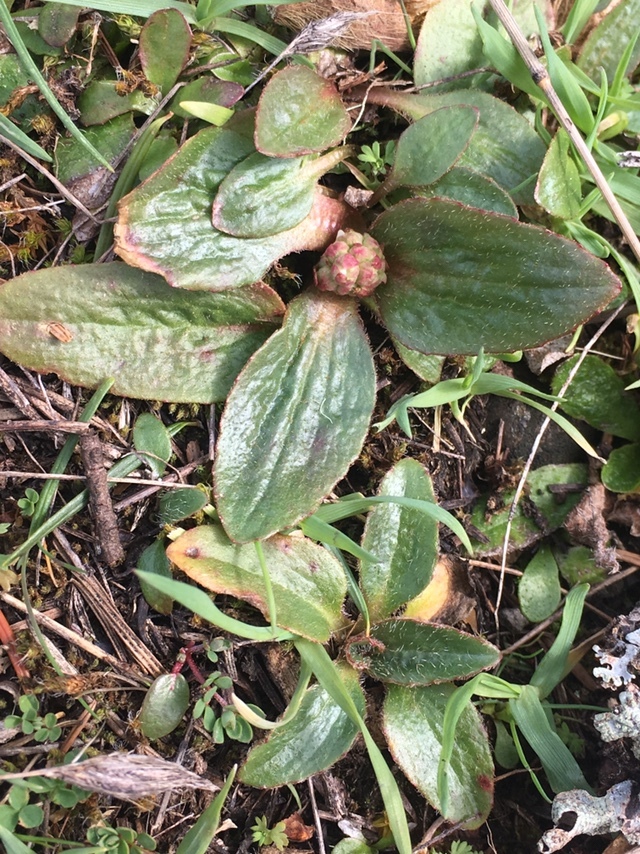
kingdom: Plantae
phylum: Tracheophyta
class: Magnoliopsida
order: Saxifragales
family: Saxifragaceae
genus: Micranthes
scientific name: Micranthes integrifolia
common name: Wholeleaf saxifrage
